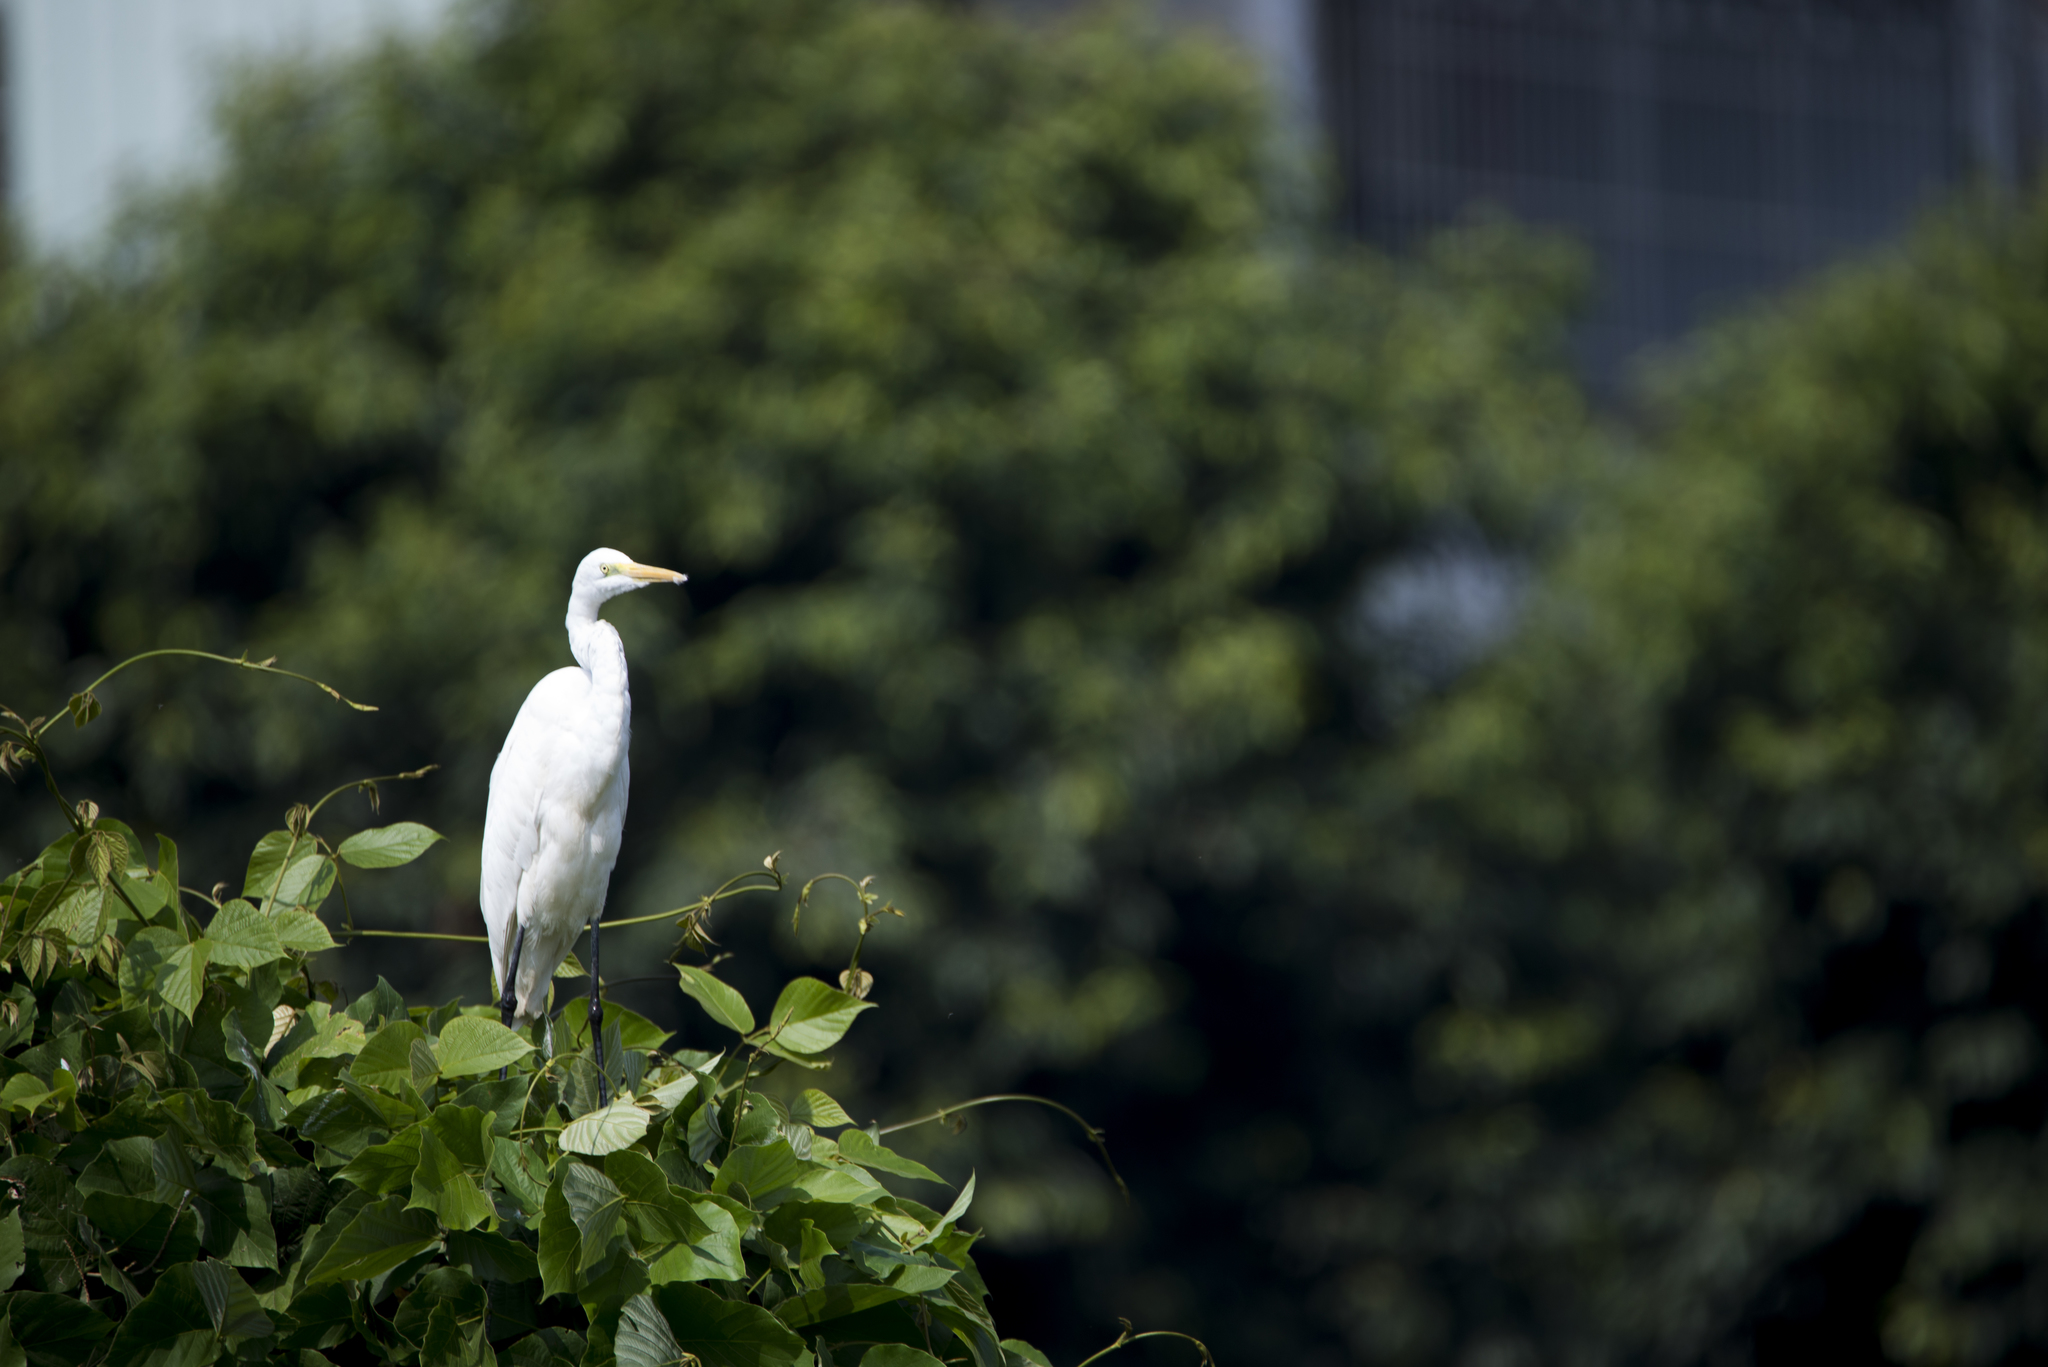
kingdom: Animalia
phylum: Chordata
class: Aves
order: Pelecaniformes
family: Ardeidae
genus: Ardea
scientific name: Ardea modesta
